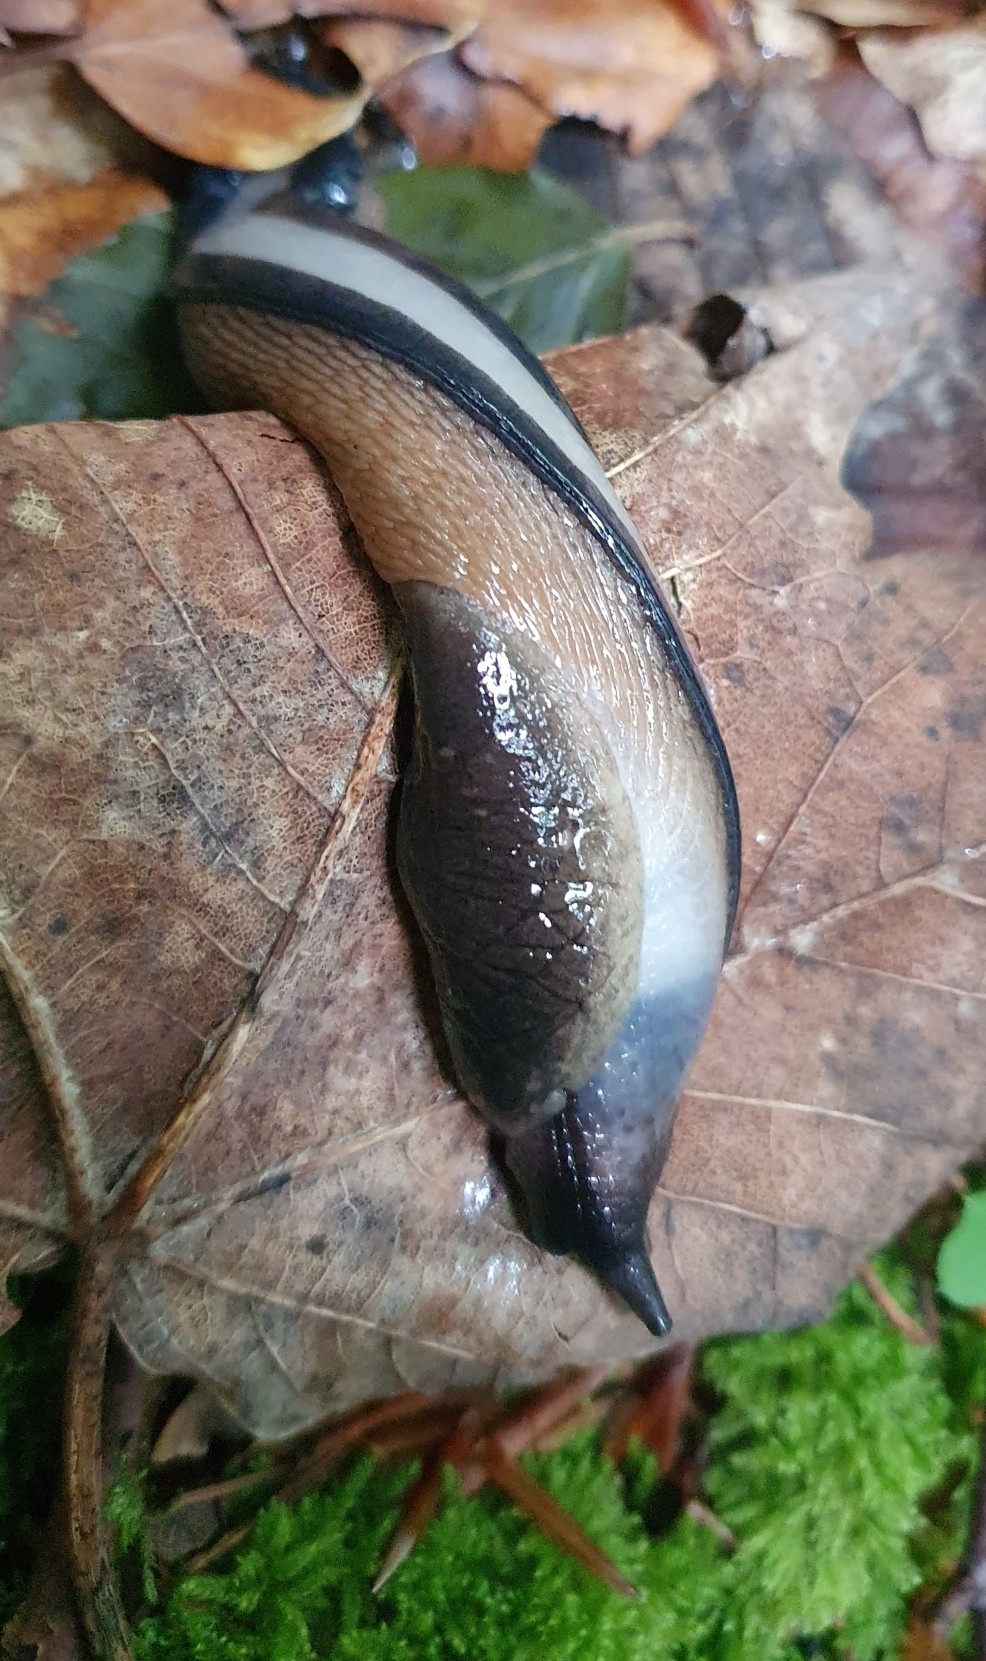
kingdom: Animalia
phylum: Mollusca
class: Gastropoda
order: Stylommatophora
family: Limacidae
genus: Limax
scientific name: Limax cinereoniger
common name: Ash-black slug
